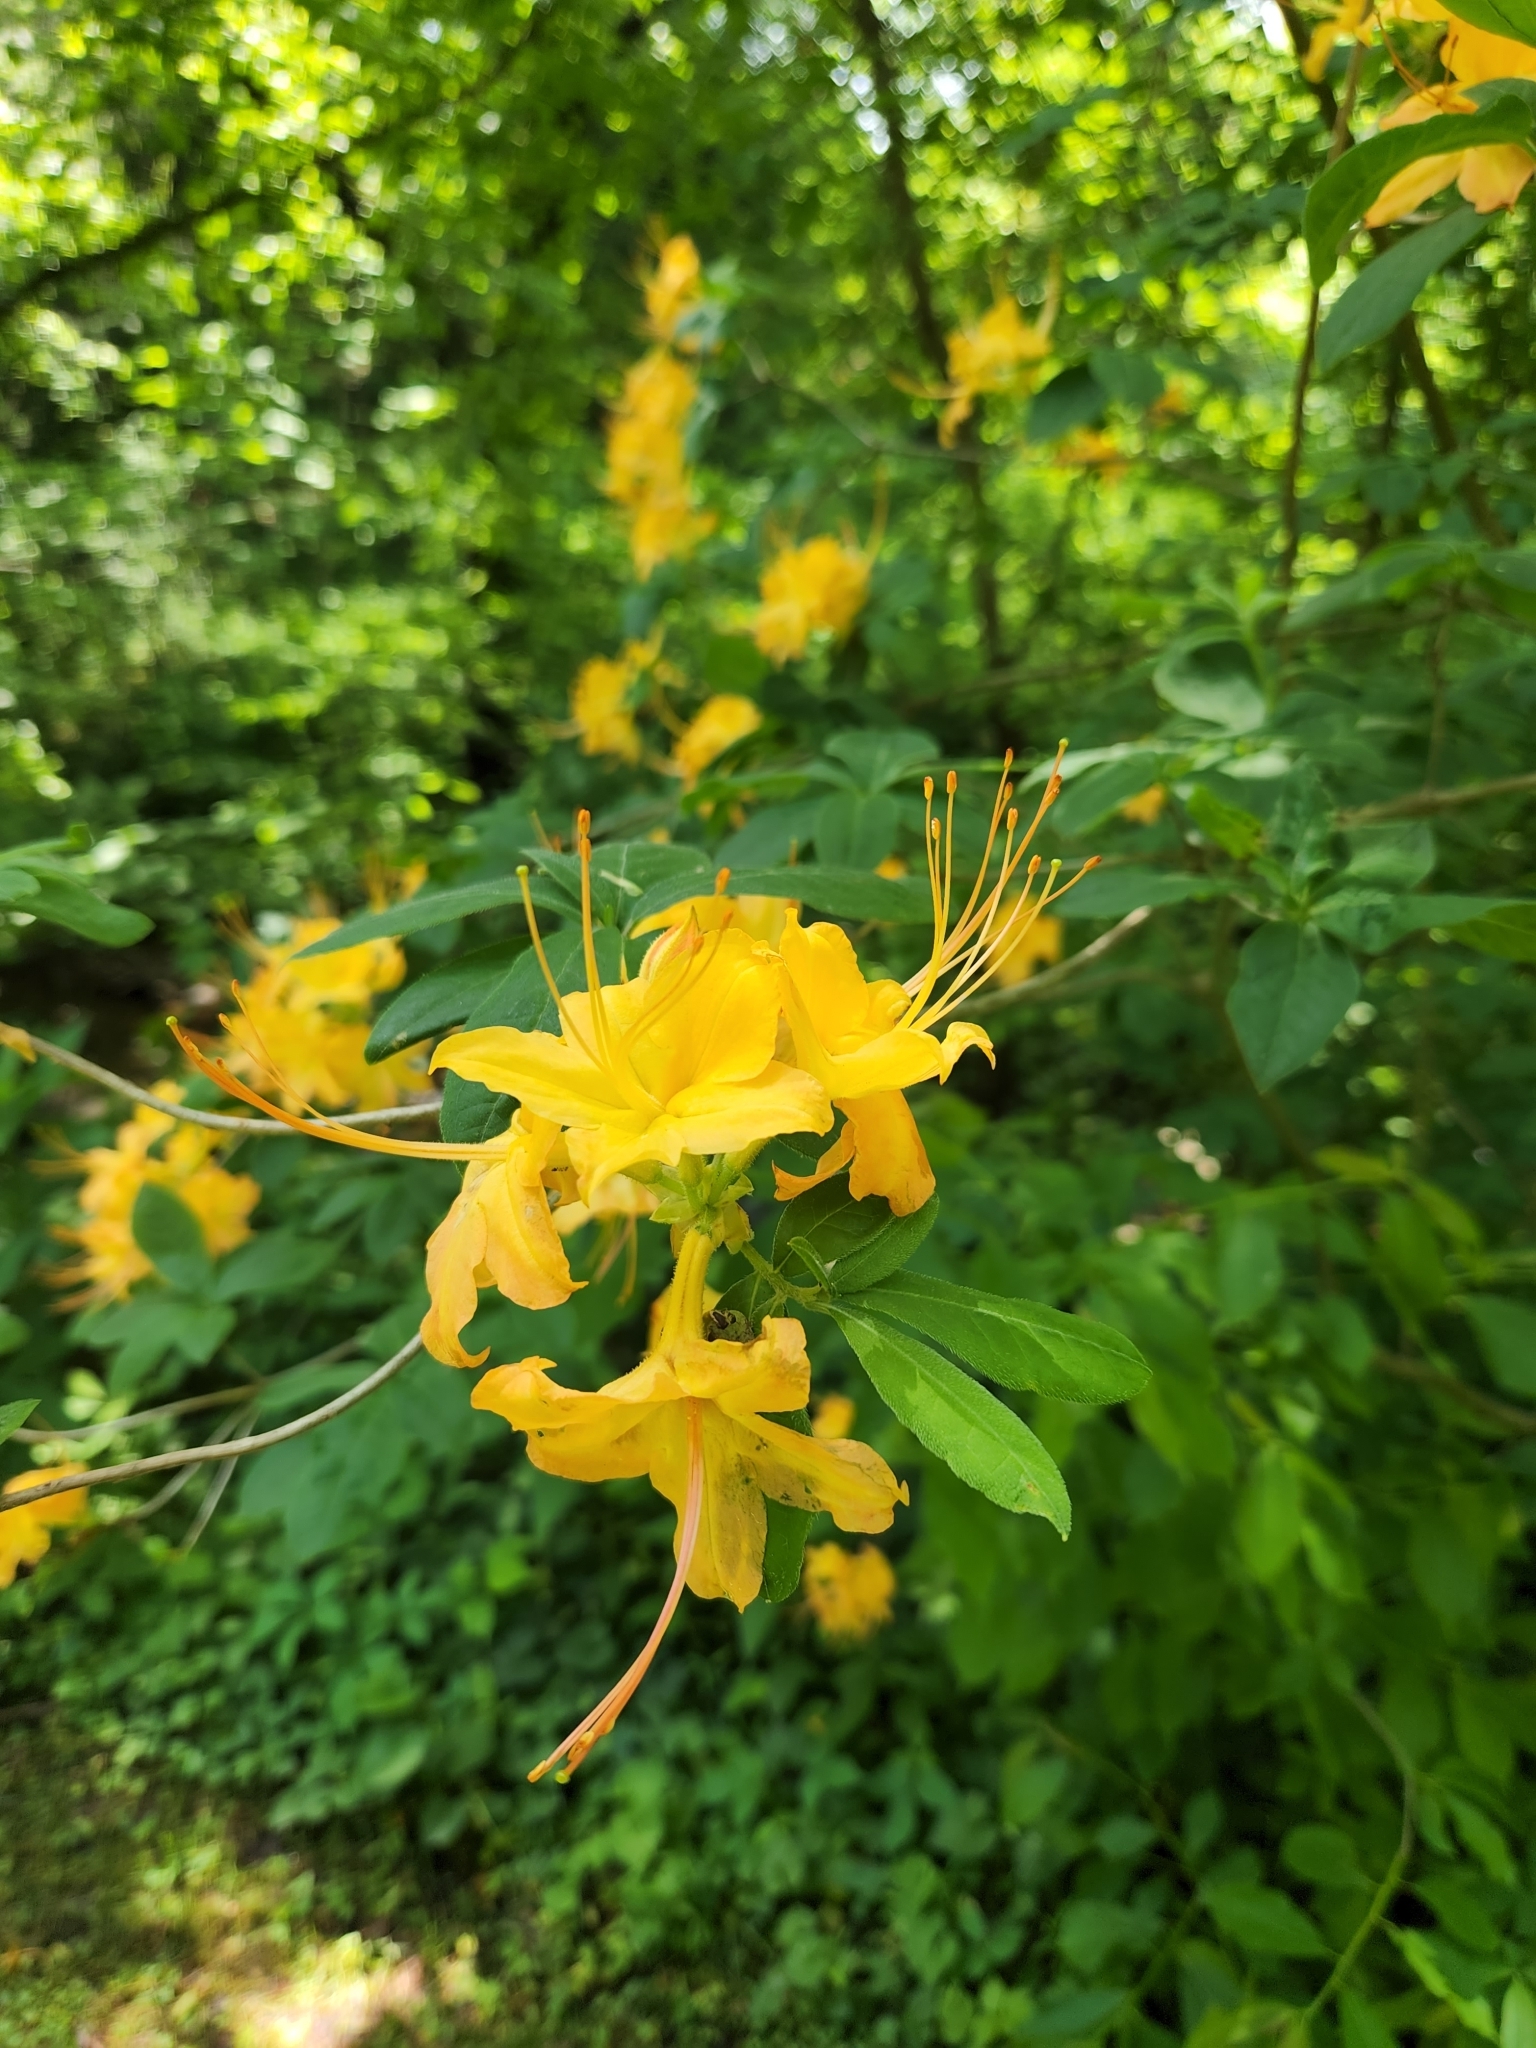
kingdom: Plantae
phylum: Tracheophyta
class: Magnoliopsida
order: Ericales
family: Ericaceae
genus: Rhododendron
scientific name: Rhododendron calendulaceum
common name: Flame azalea
